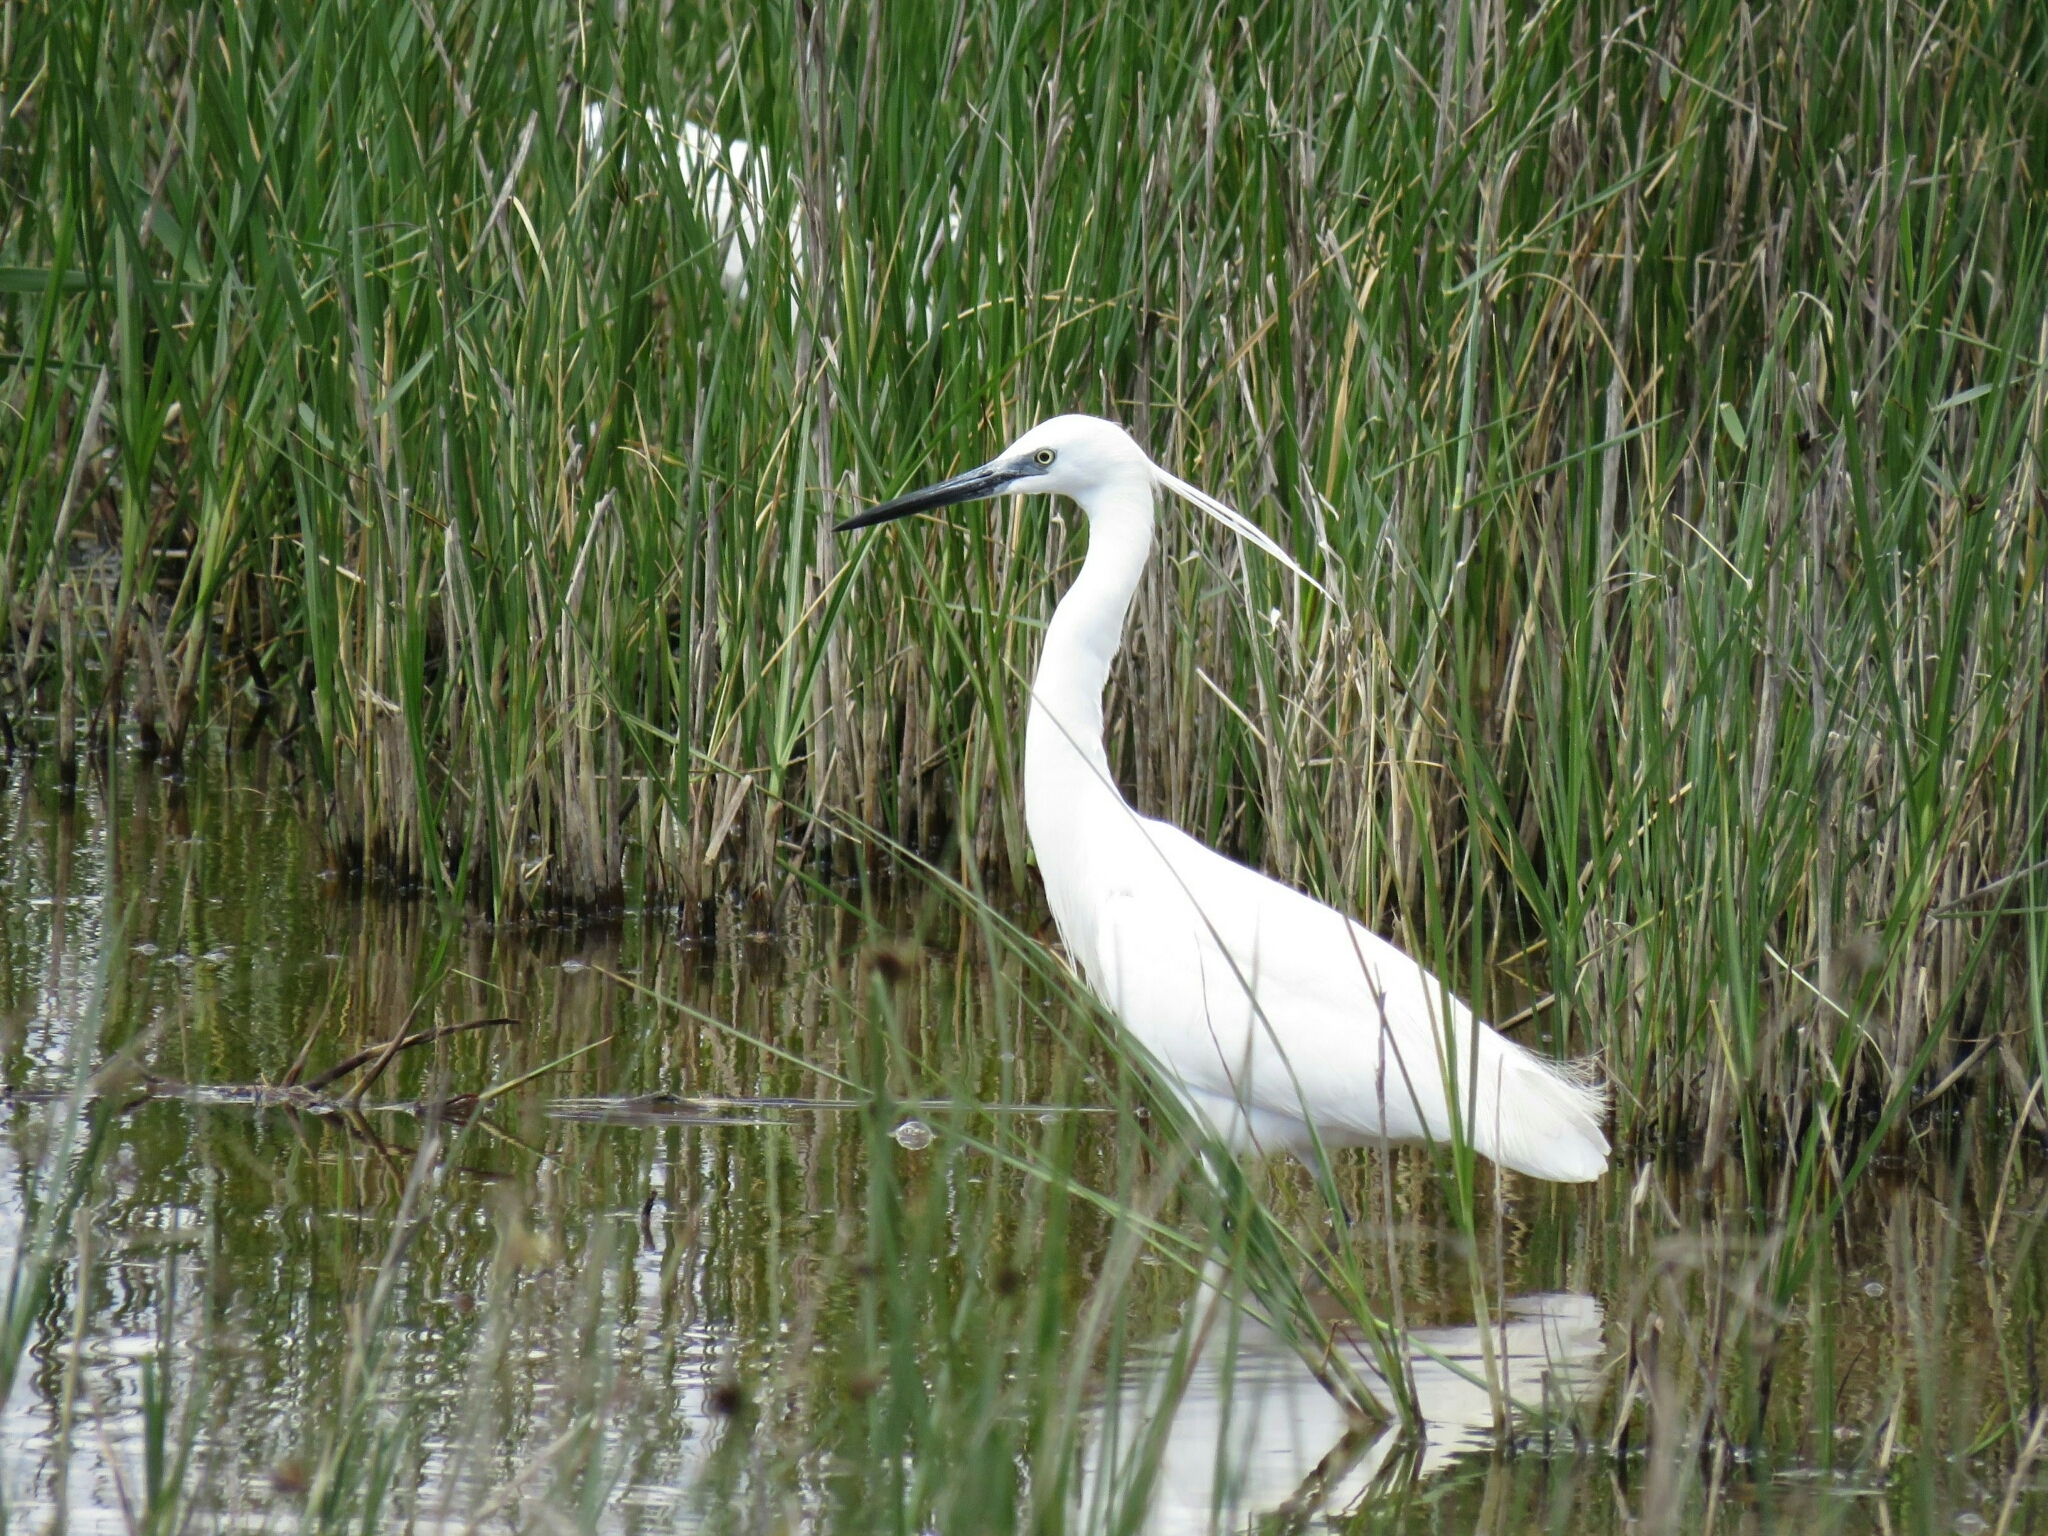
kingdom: Animalia
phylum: Chordata
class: Aves
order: Pelecaniformes
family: Ardeidae
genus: Egretta
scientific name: Egretta garzetta
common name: Little egret
